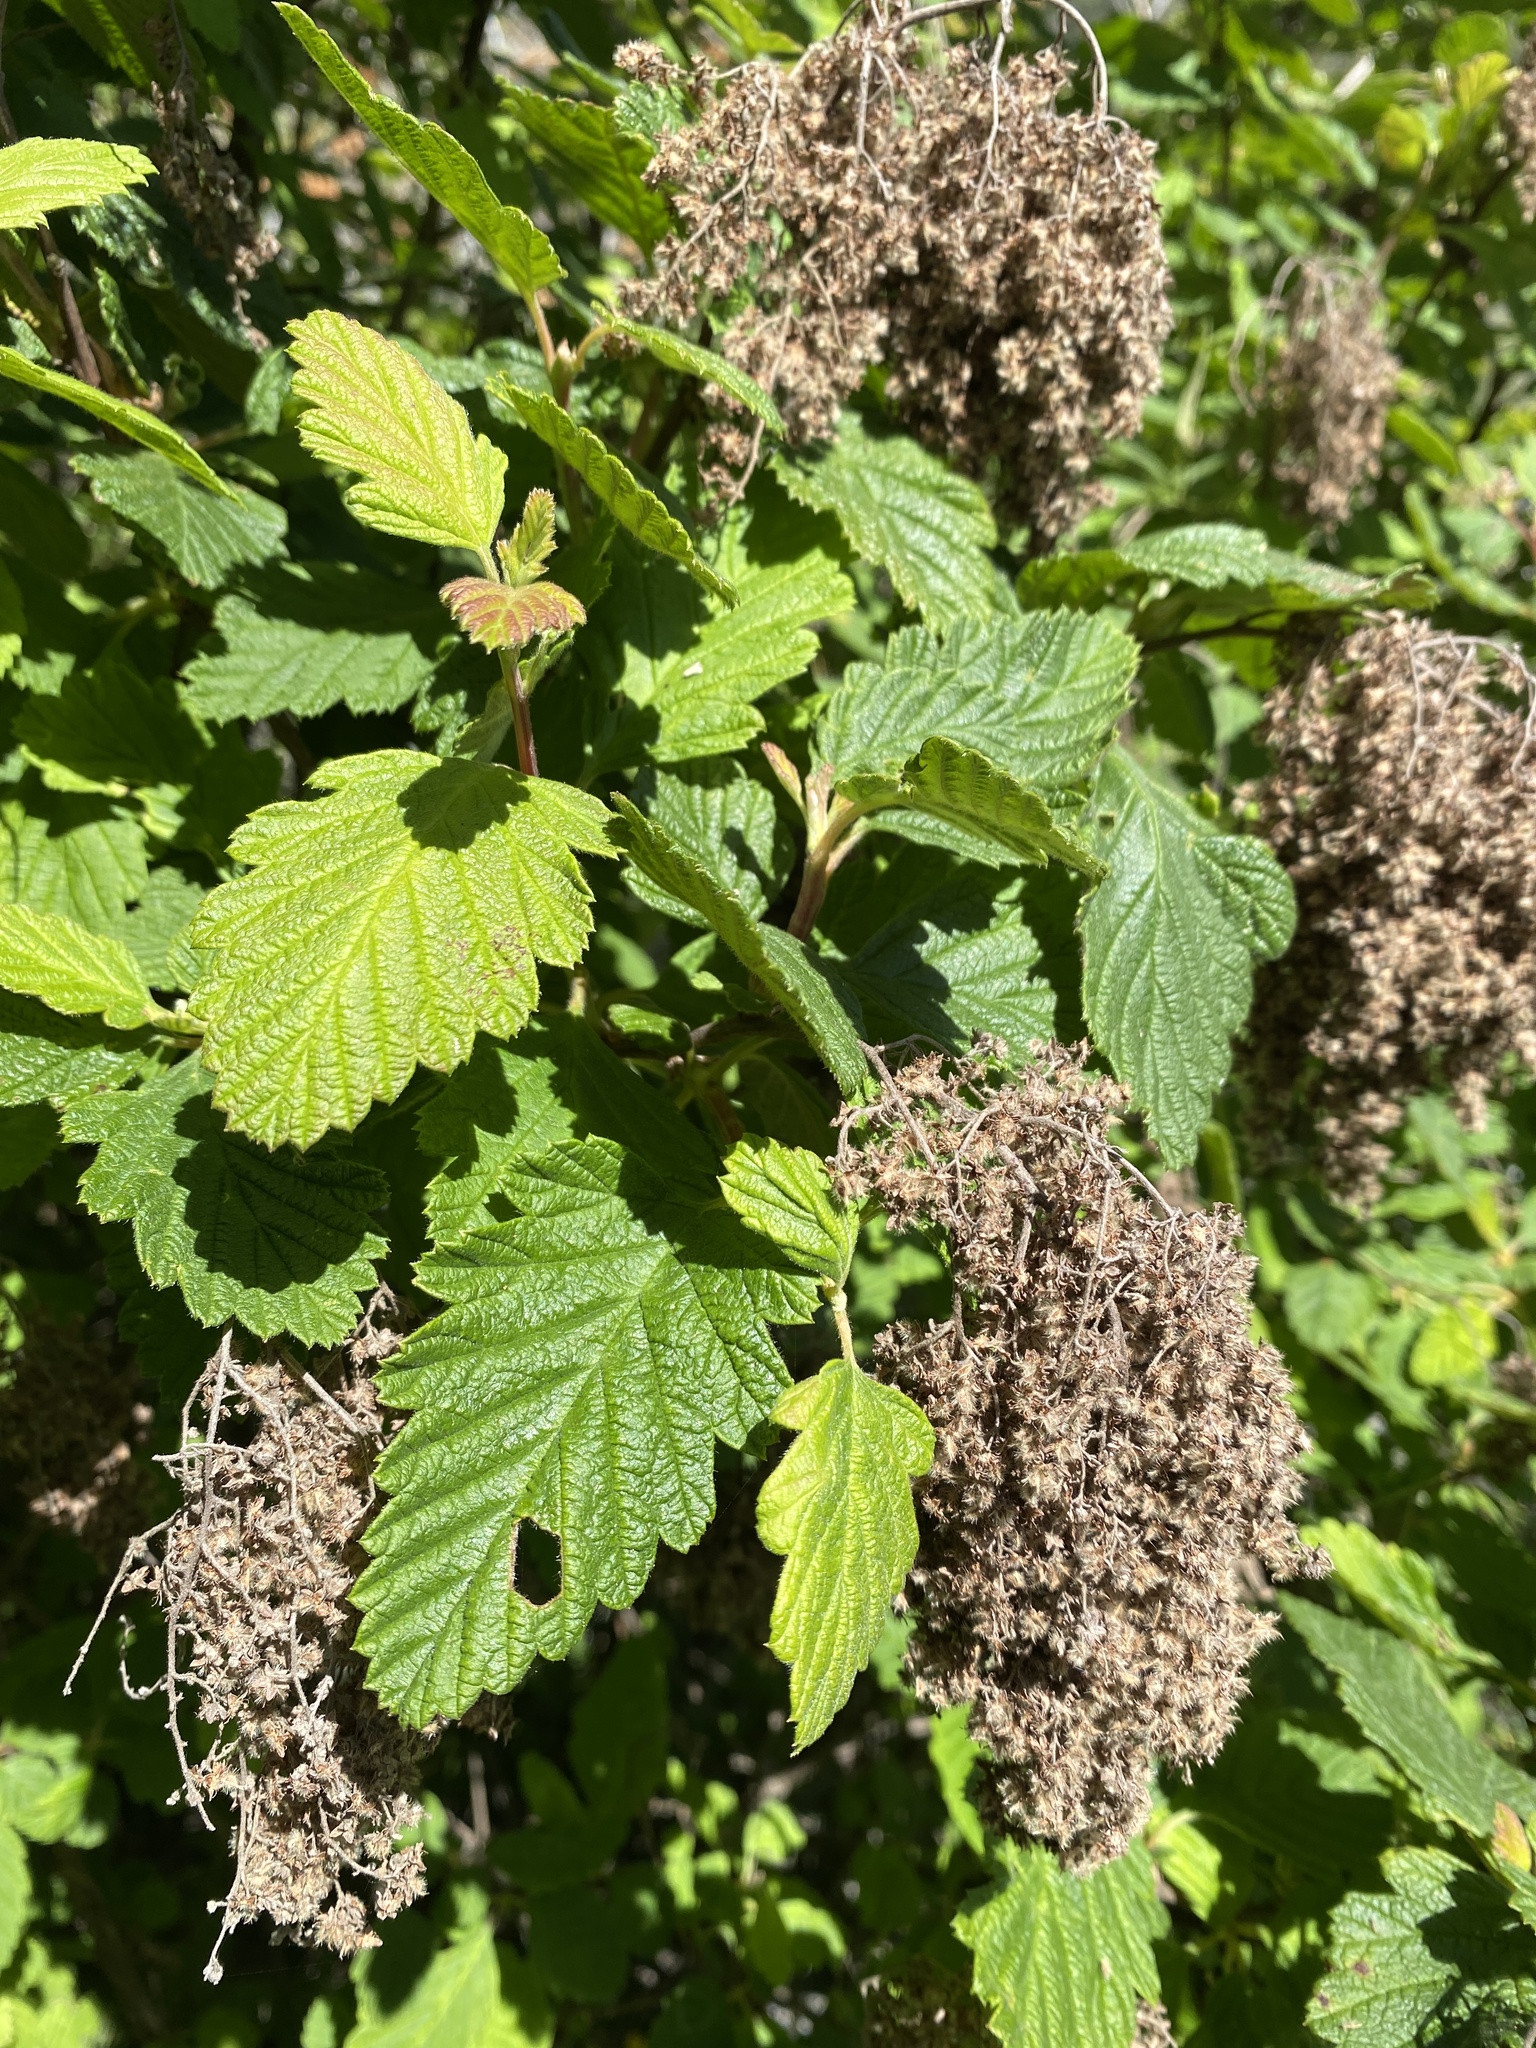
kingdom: Plantae
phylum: Tracheophyta
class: Magnoliopsida
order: Rosales
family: Rosaceae
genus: Holodiscus
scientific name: Holodiscus discolor
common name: Oceanspray
